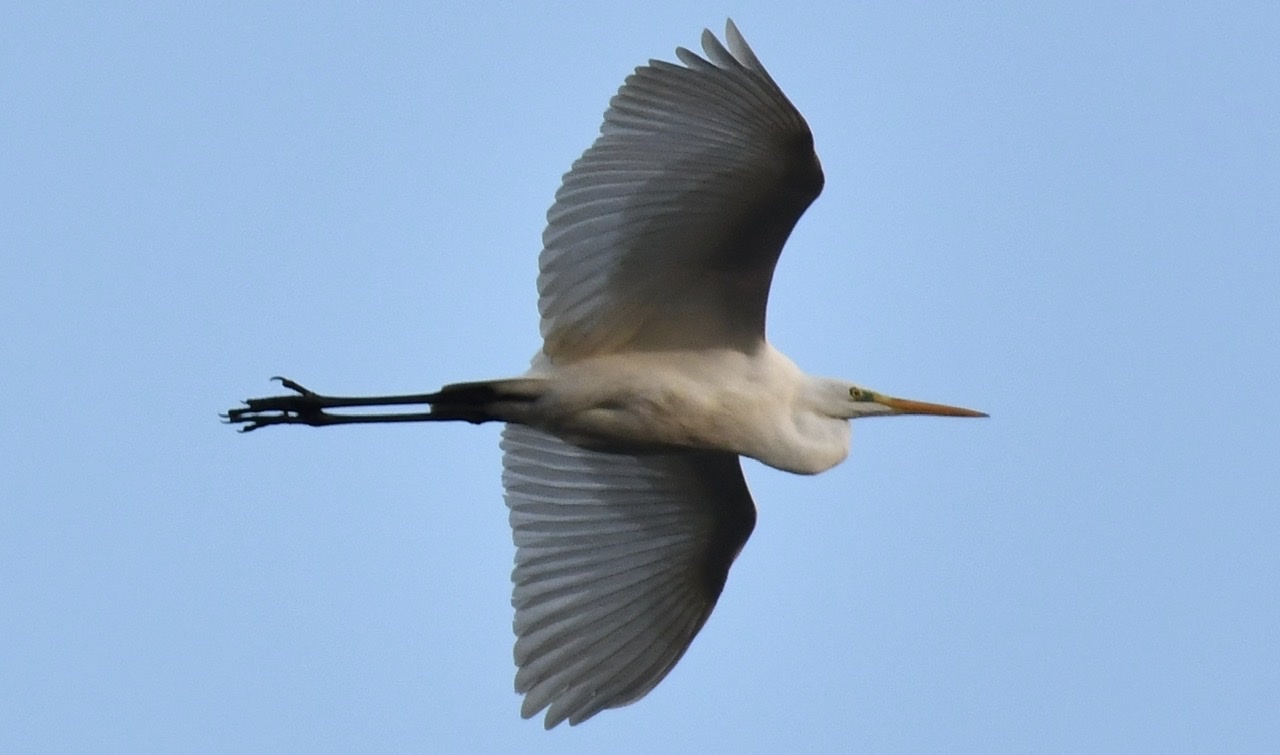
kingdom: Animalia
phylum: Chordata
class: Aves
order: Pelecaniformes
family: Ardeidae
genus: Ardea
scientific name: Ardea alba
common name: Great egret
